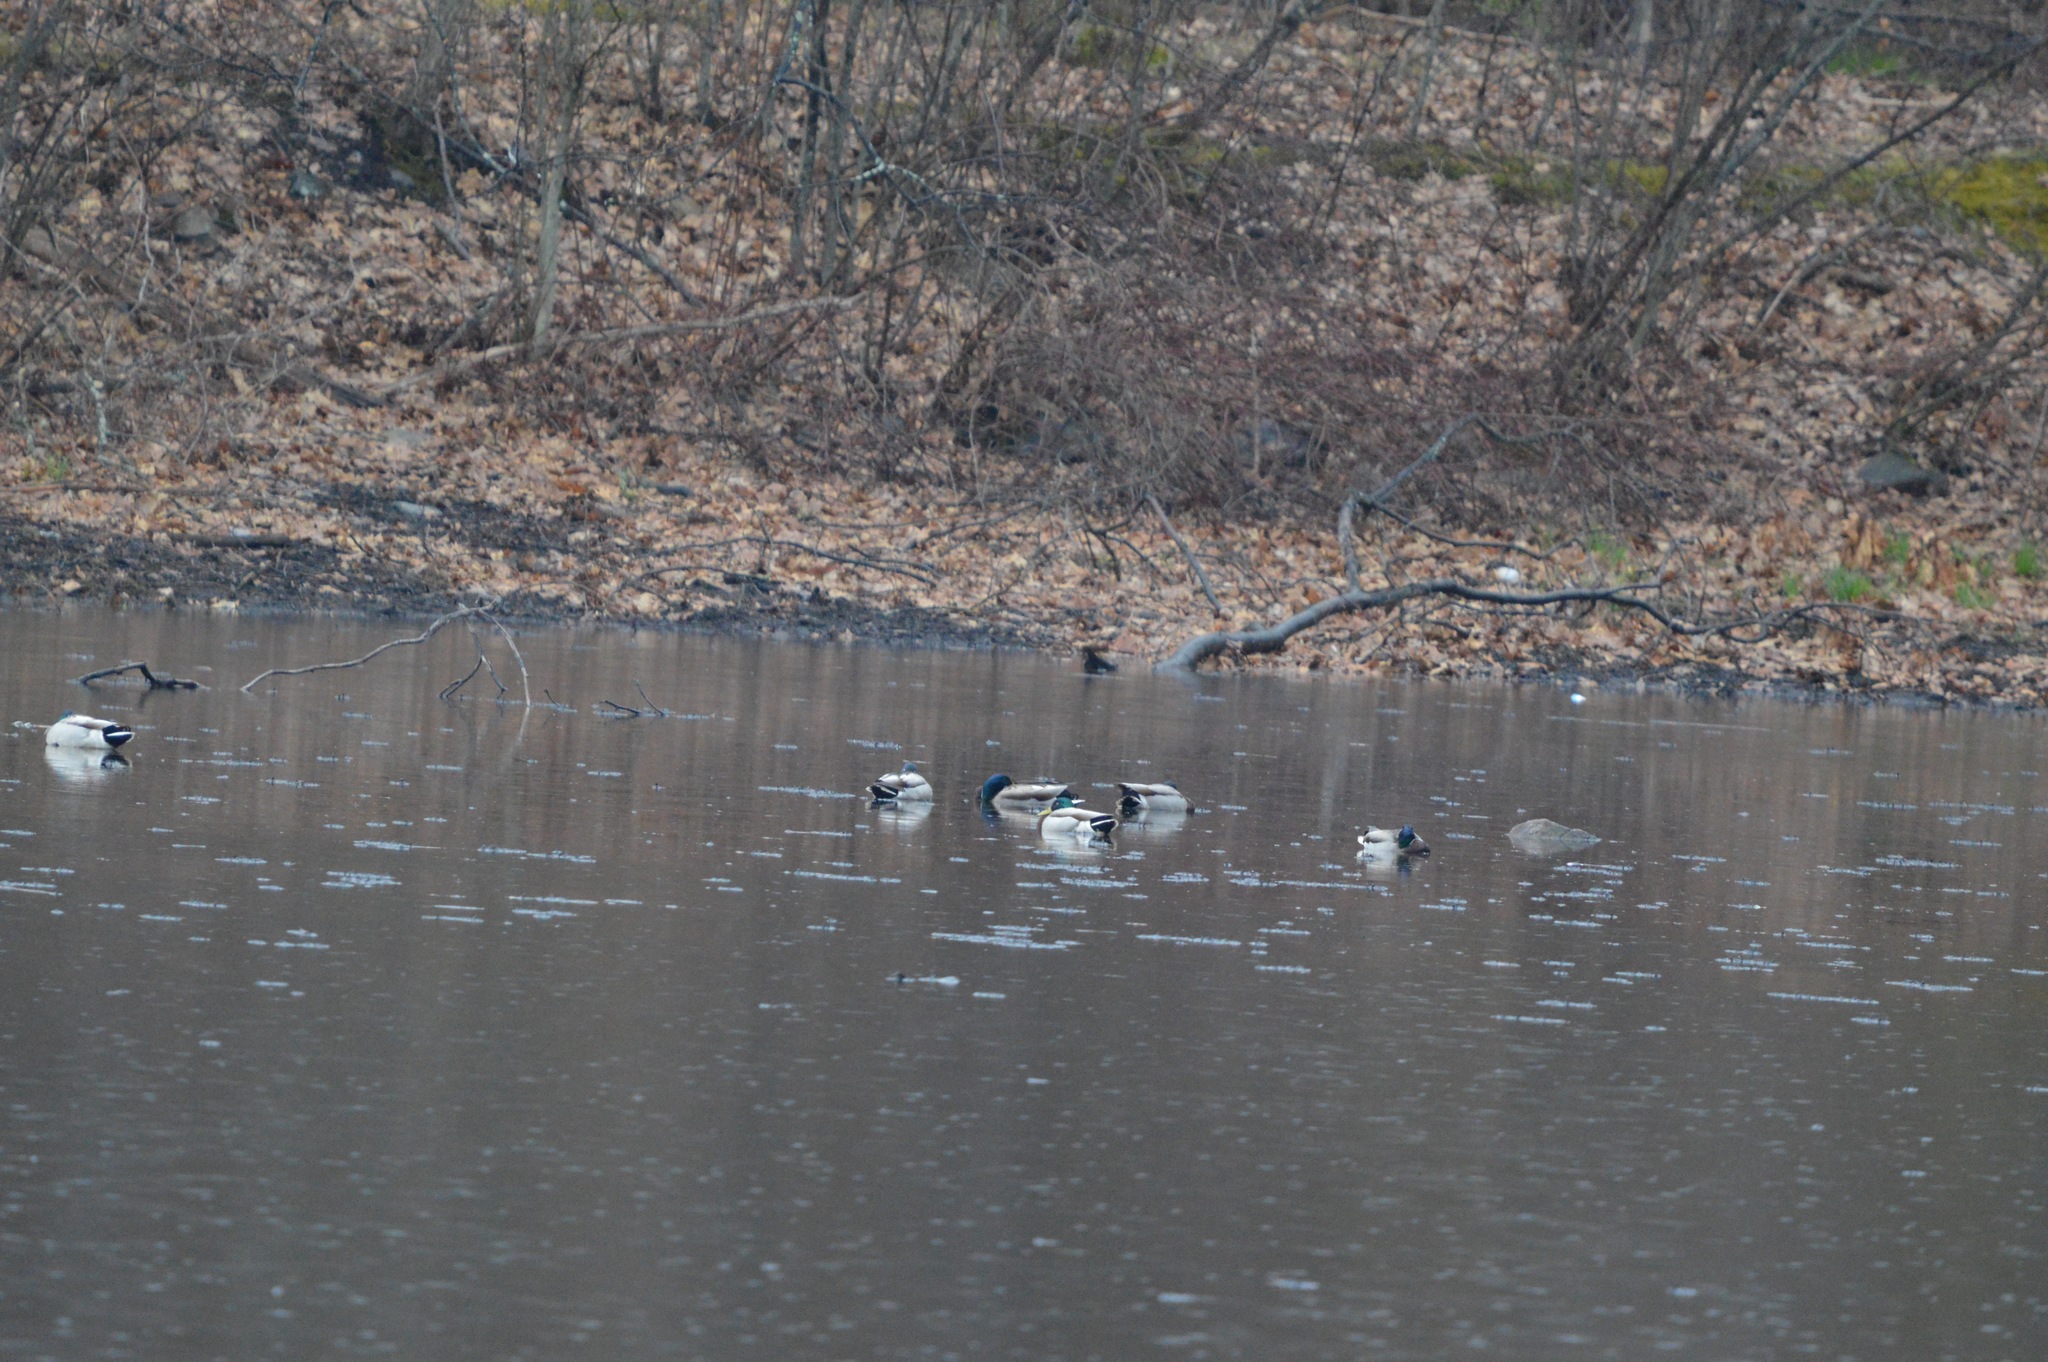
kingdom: Animalia
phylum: Chordata
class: Aves
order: Anseriformes
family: Anatidae
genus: Anas
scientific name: Anas platyrhynchos
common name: Mallard
